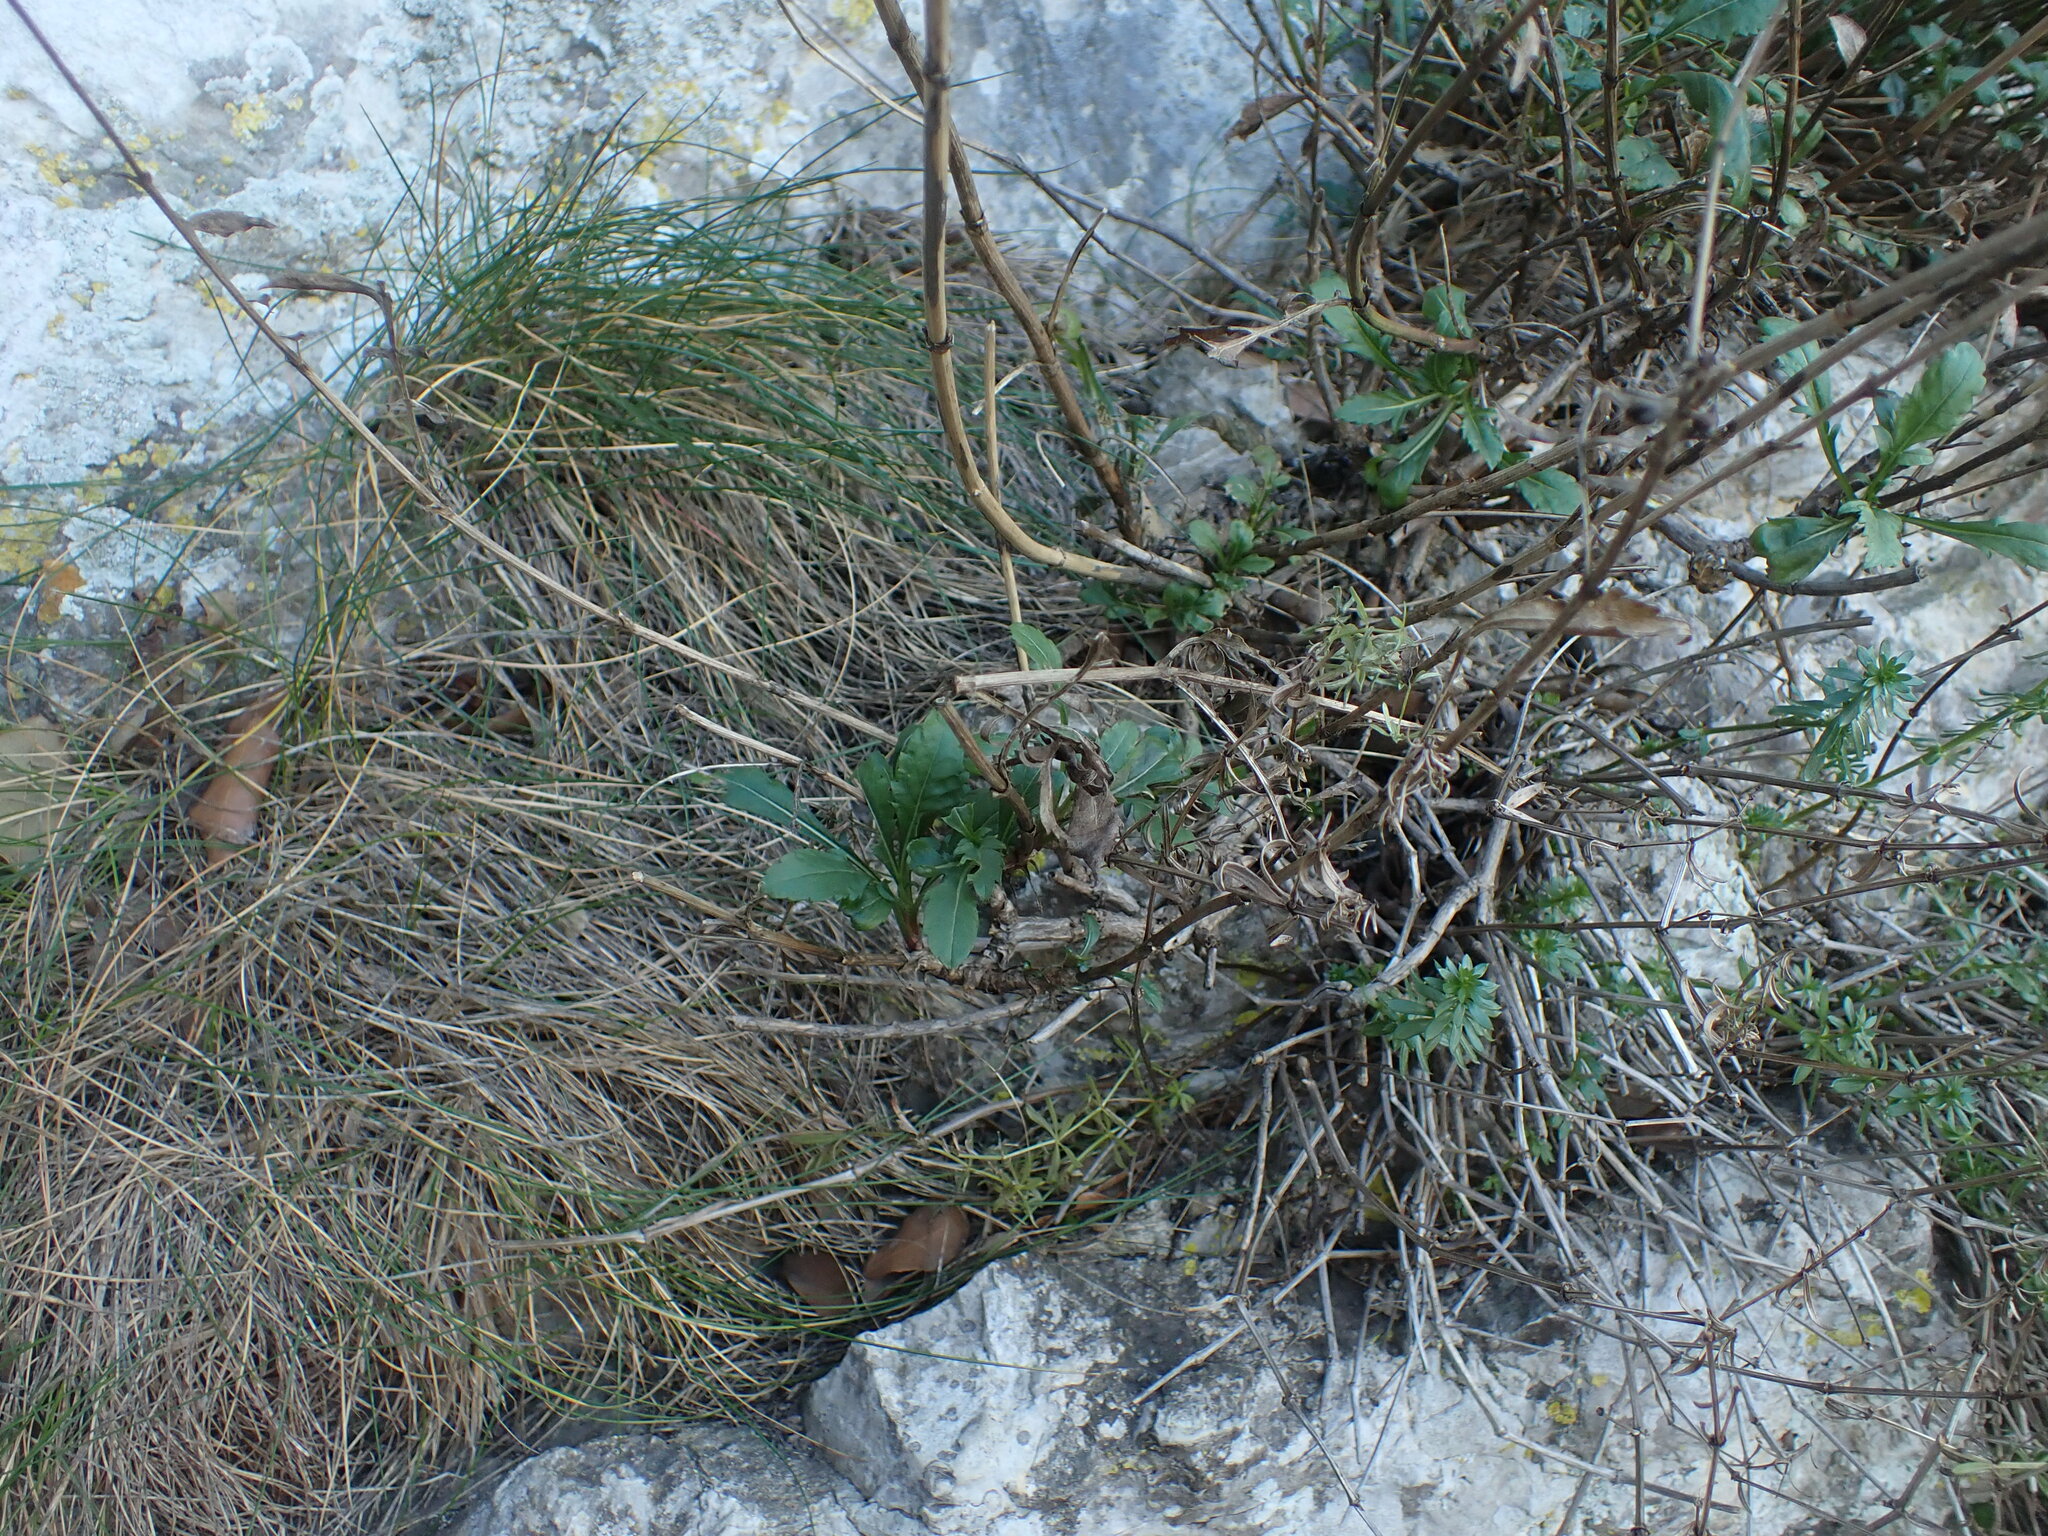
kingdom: Plantae
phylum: Tracheophyta
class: Magnoliopsida
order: Dipsacales
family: Caprifoliaceae
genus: Cephalaria
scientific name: Cephalaria leucantha
